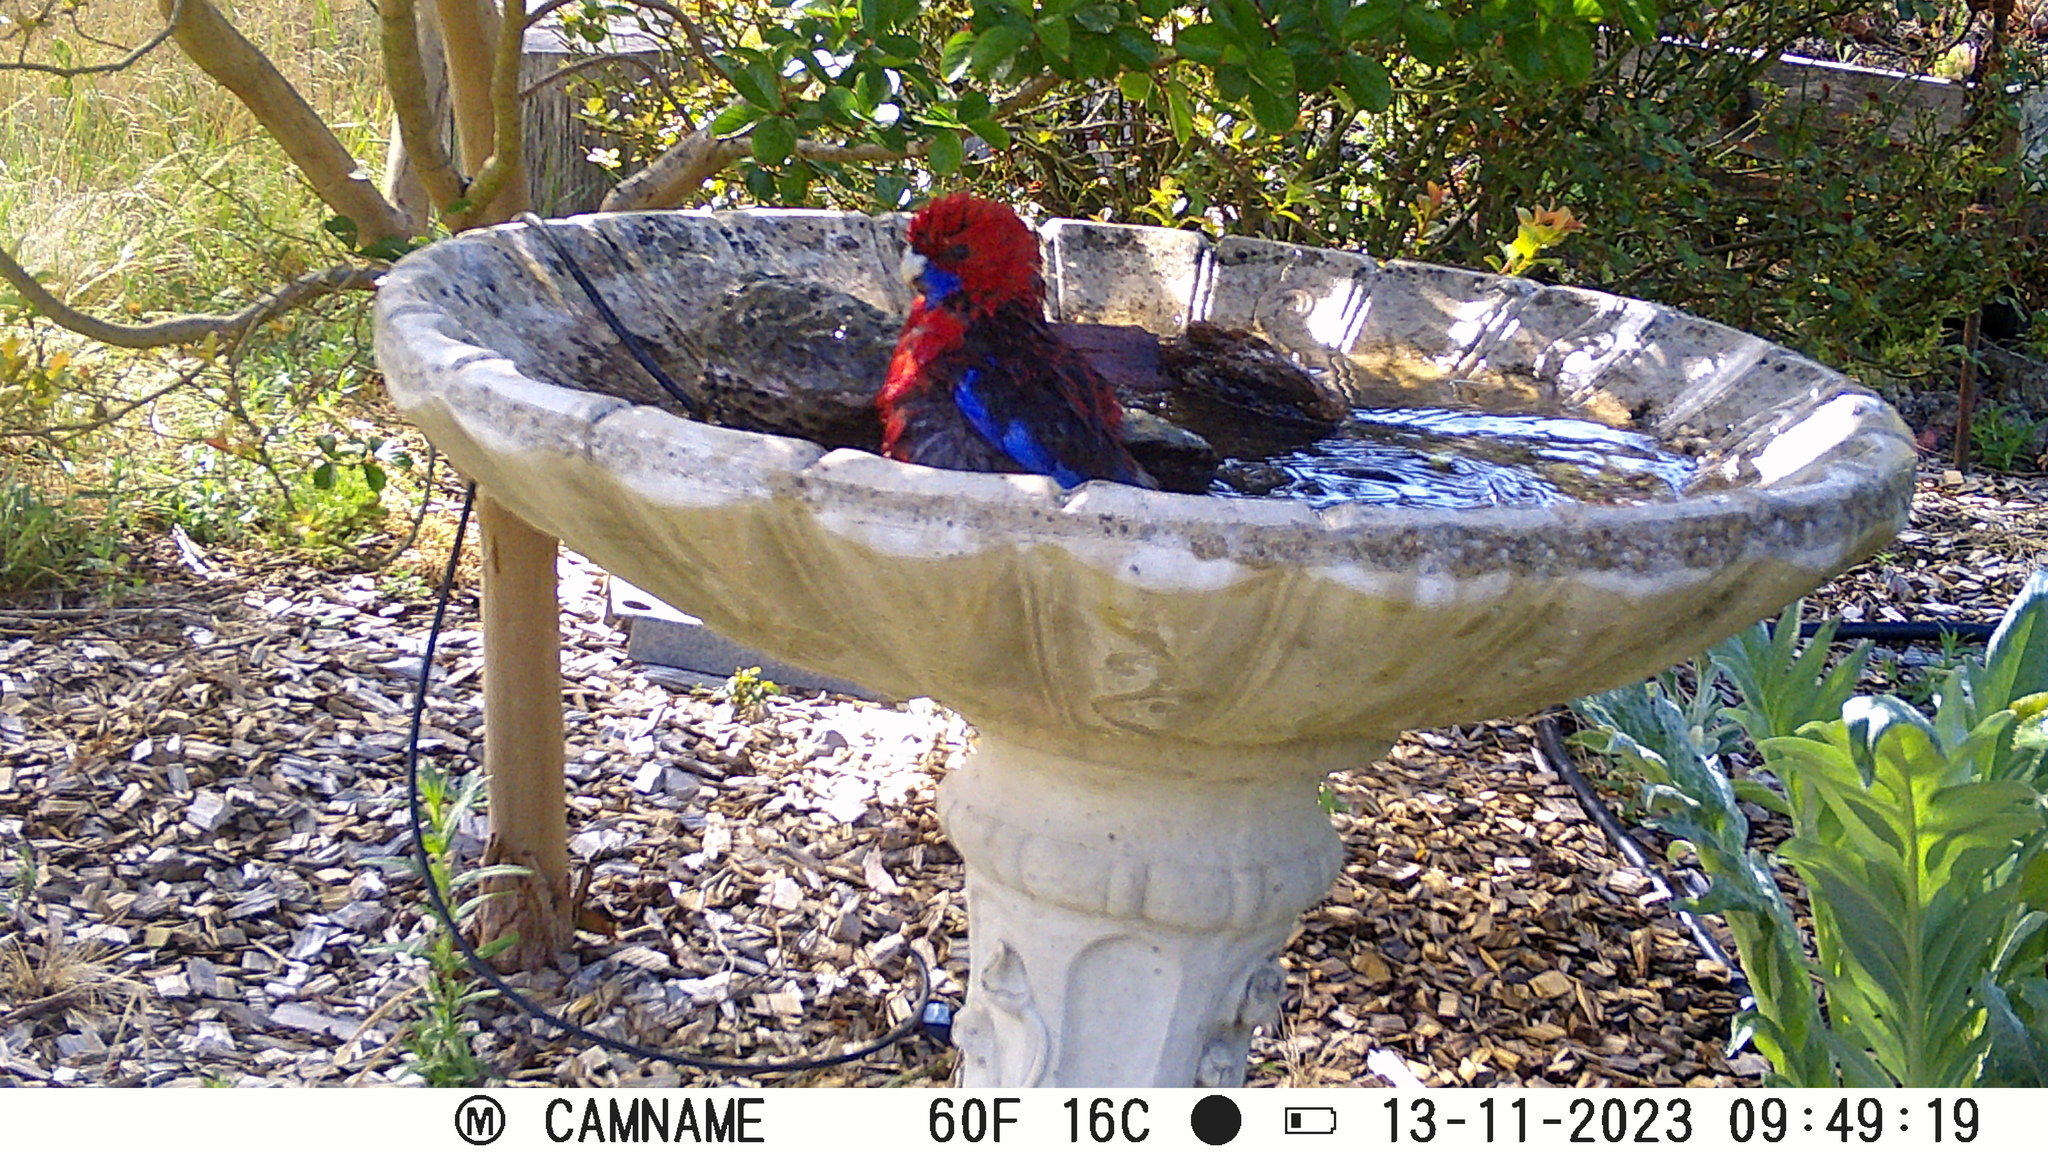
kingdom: Animalia
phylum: Chordata
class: Aves
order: Psittaciformes
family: Psittacidae
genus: Platycercus
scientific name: Platycercus elegans
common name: Crimson rosella
